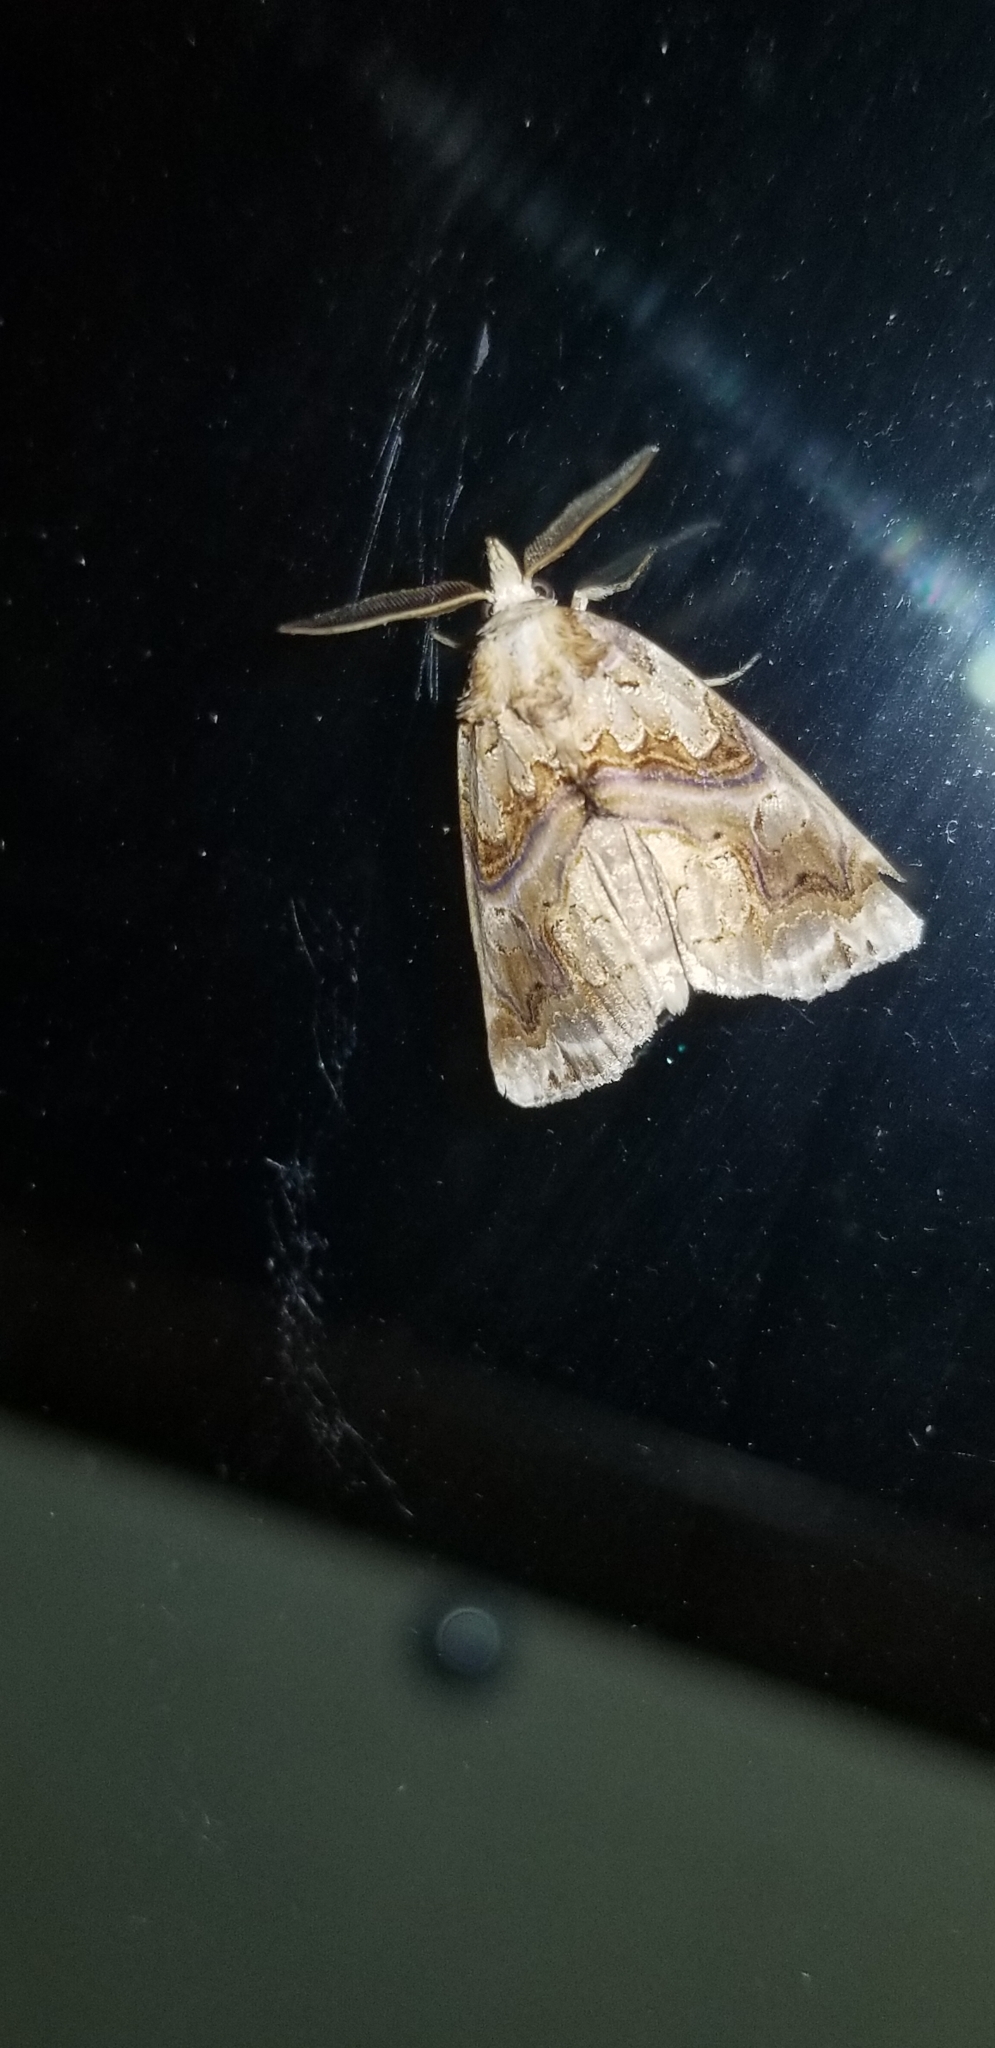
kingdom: Animalia
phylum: Arthropoda
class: Insecta
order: Lepidoptera
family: Erebidae
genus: Plusiodonta
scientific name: Plusiodonta compressipalpis
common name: Moonseed moth
